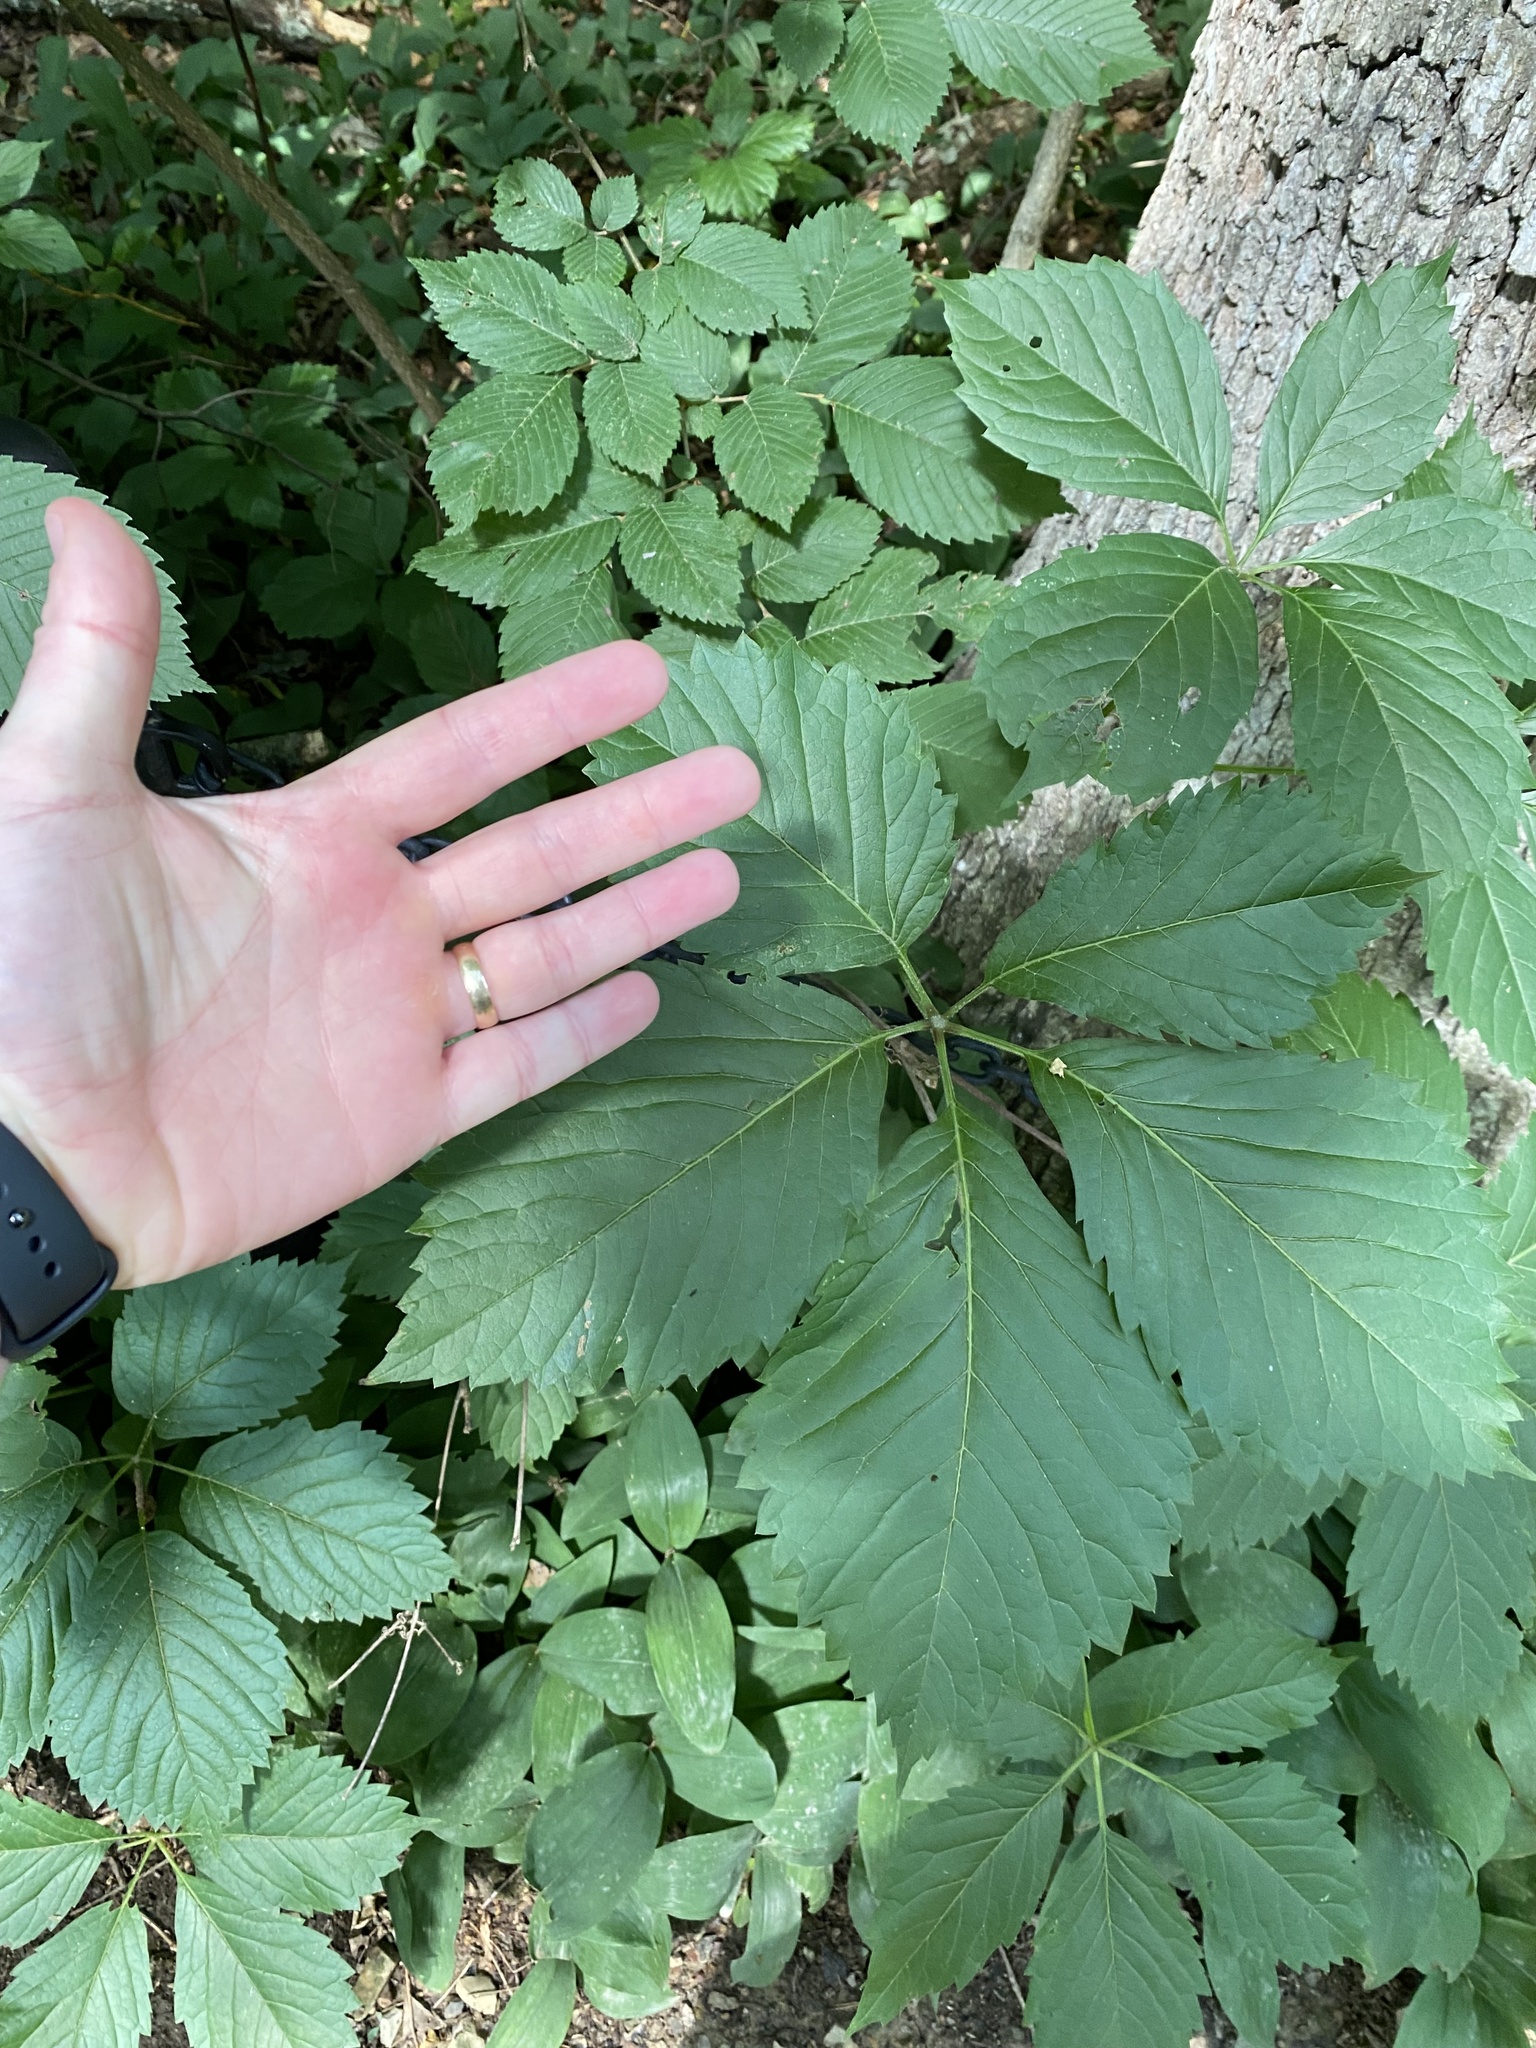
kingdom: Plantae
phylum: Tracheophyta
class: Magnoliopsida
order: Vitales
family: Vitaceae
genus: Parthenocissus
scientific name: Parthenocissus quinquefolia
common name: Virginia-creeper
